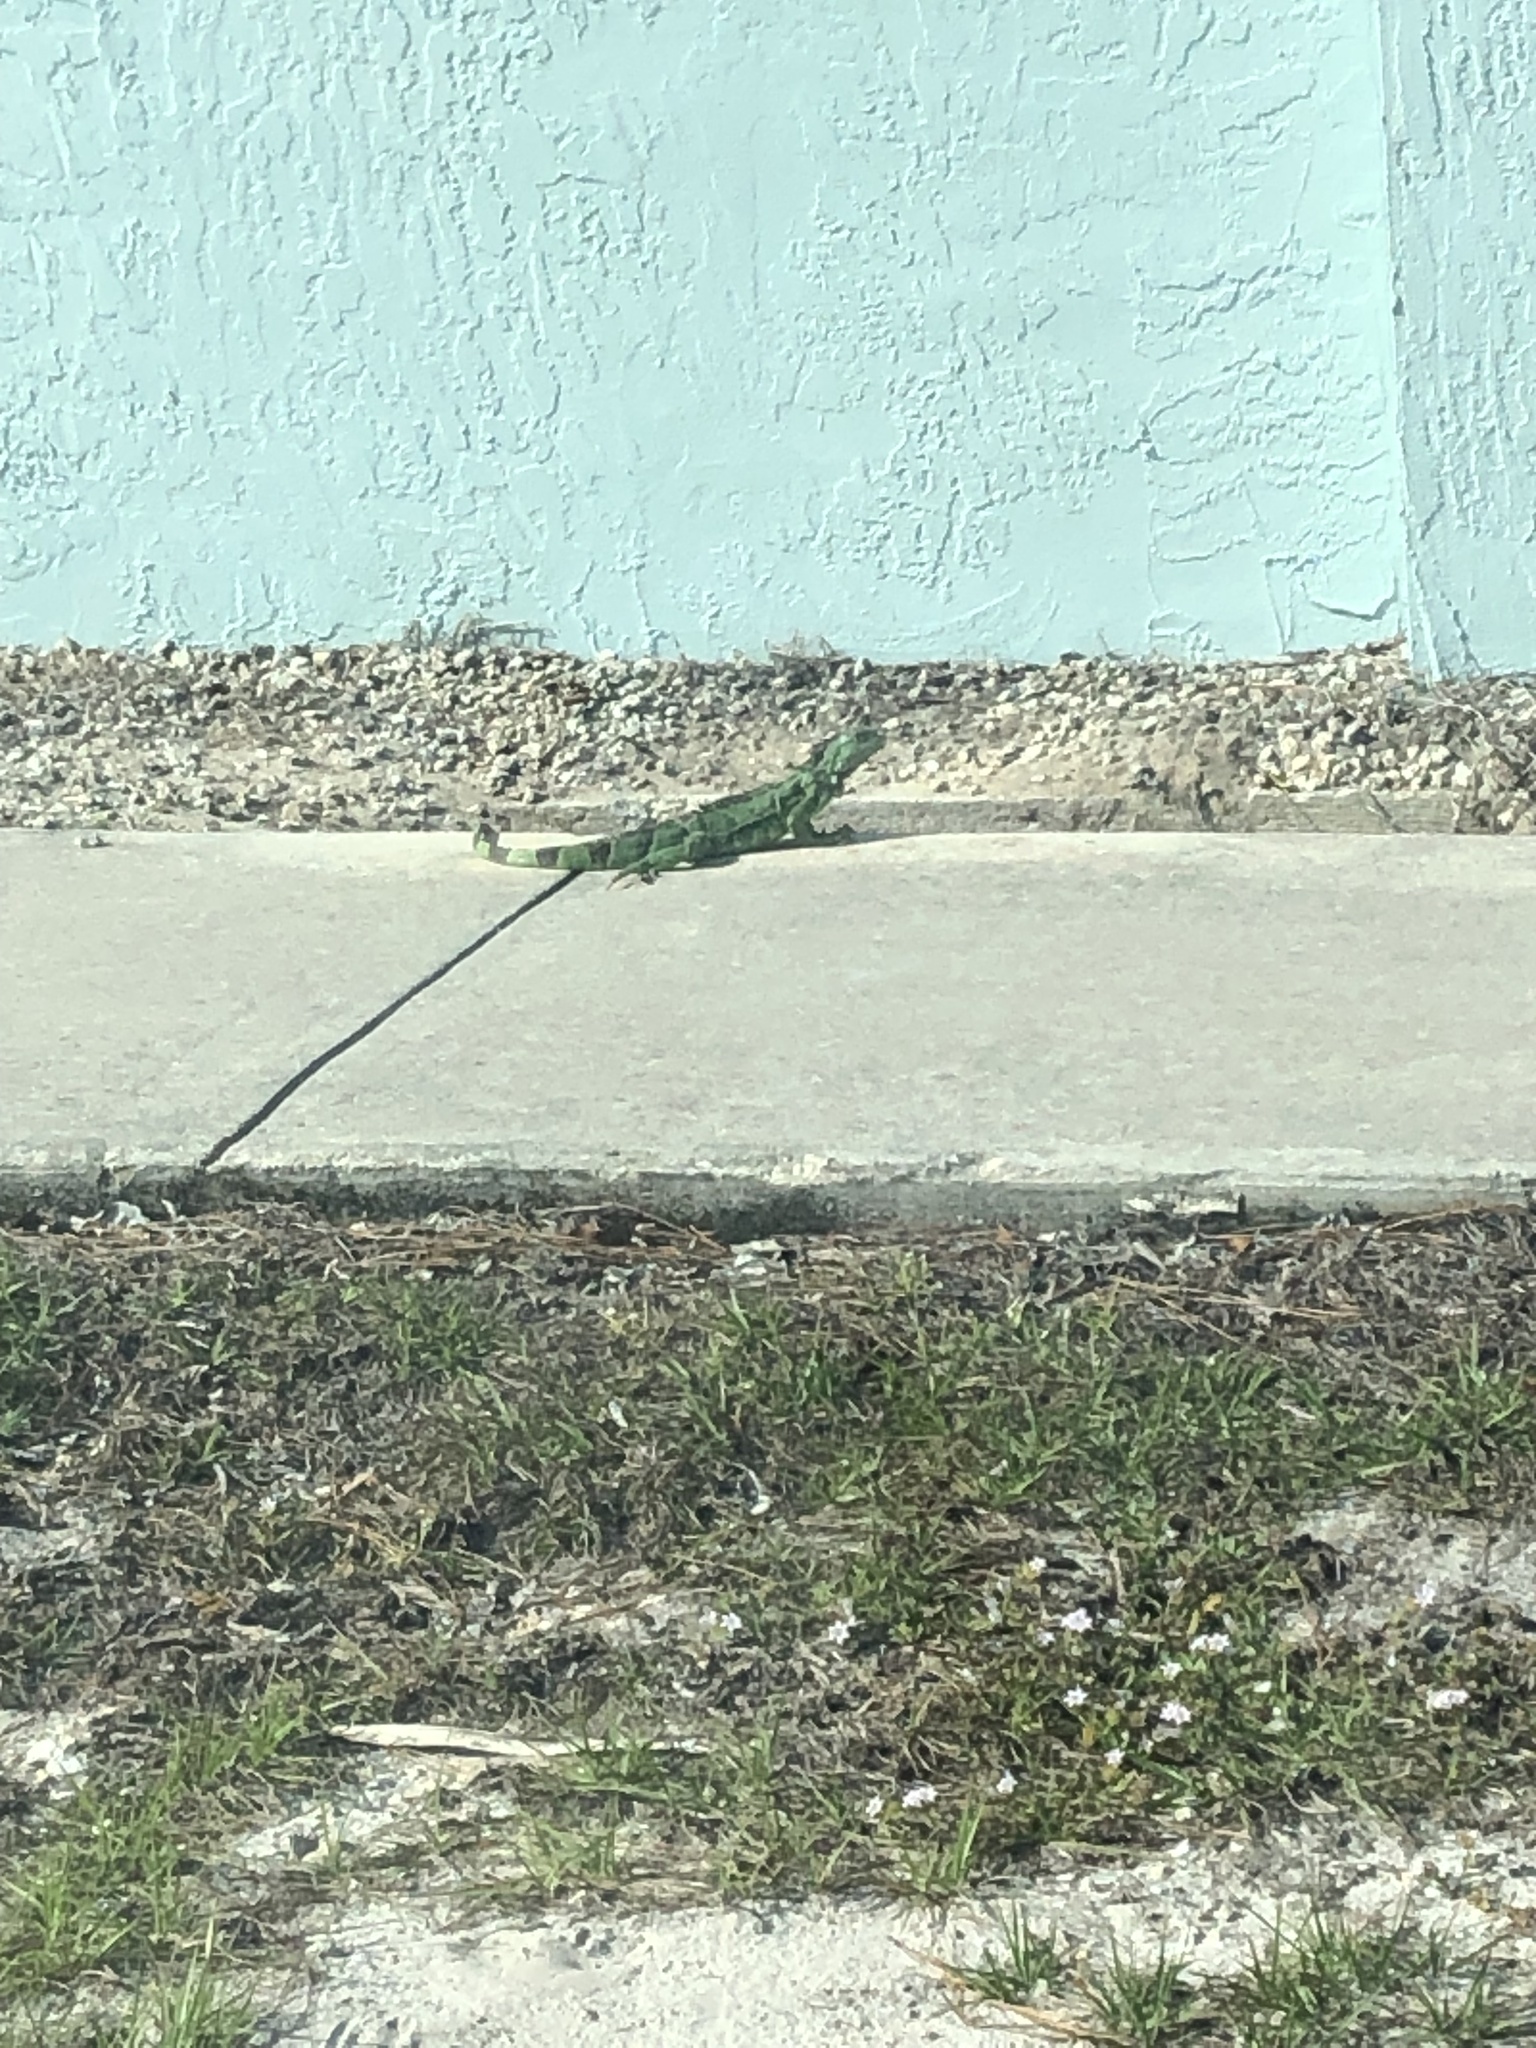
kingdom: Animalia
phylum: Chordata
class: Squamata
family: Iguanidae
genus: Iguana
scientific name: Iguana iguana
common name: Green iguana
